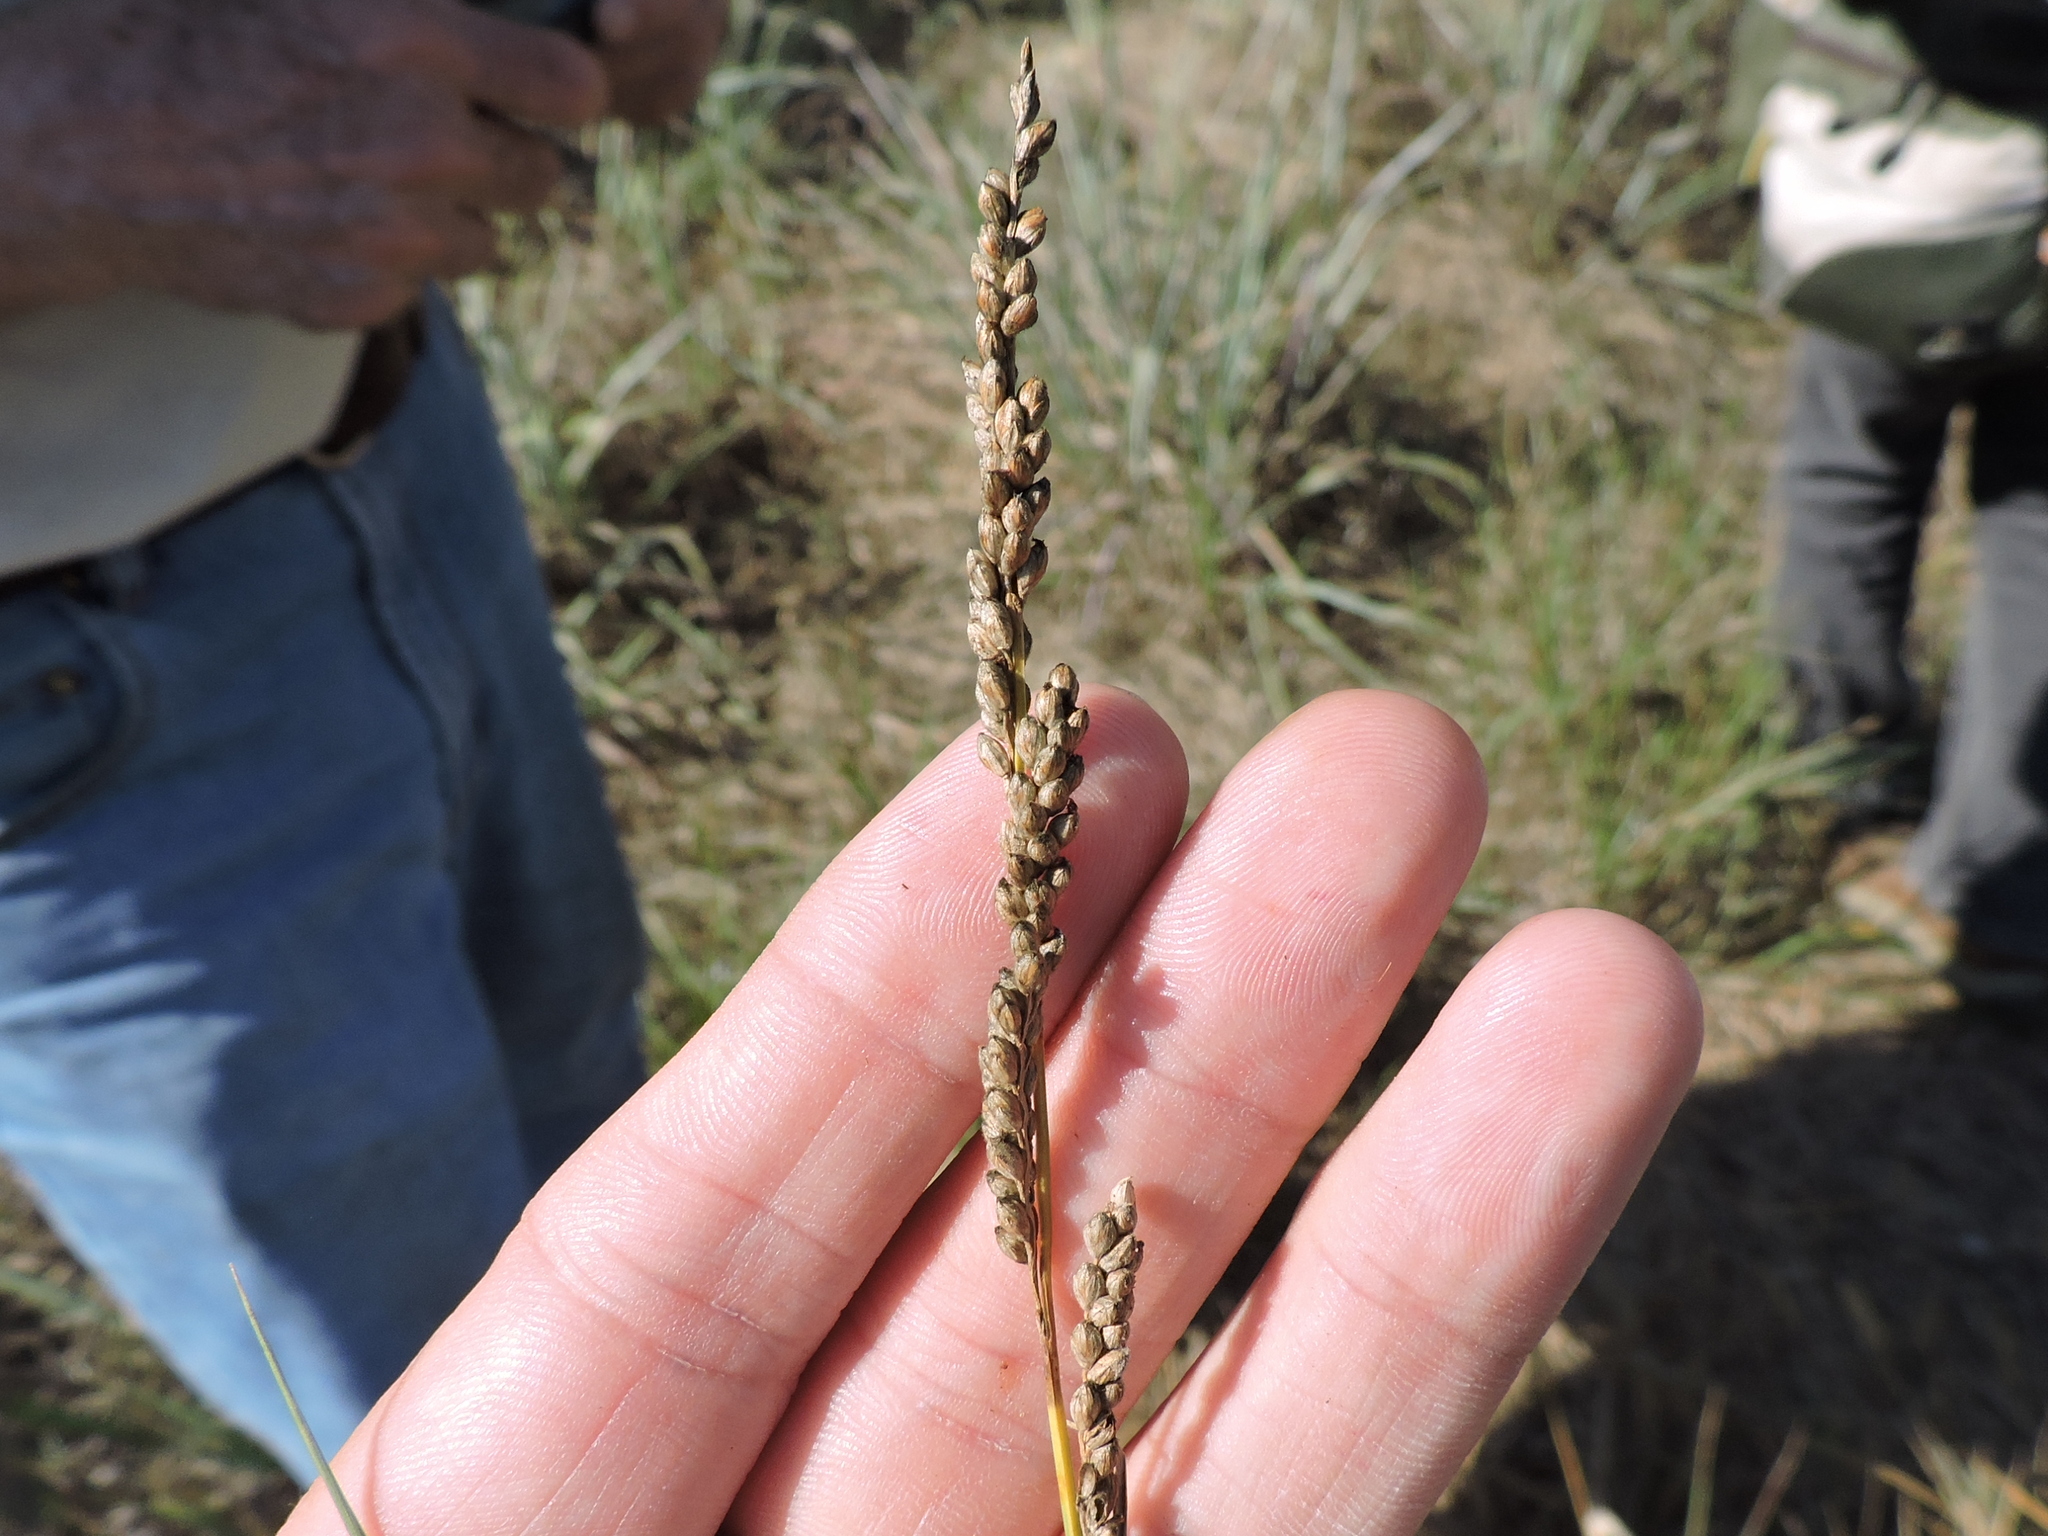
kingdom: Plantae
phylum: Tracheophyta
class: Liliopsida
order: Poales
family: Poaceae
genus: Hopia
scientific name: Hopia obtusa
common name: Vine-mesquite
